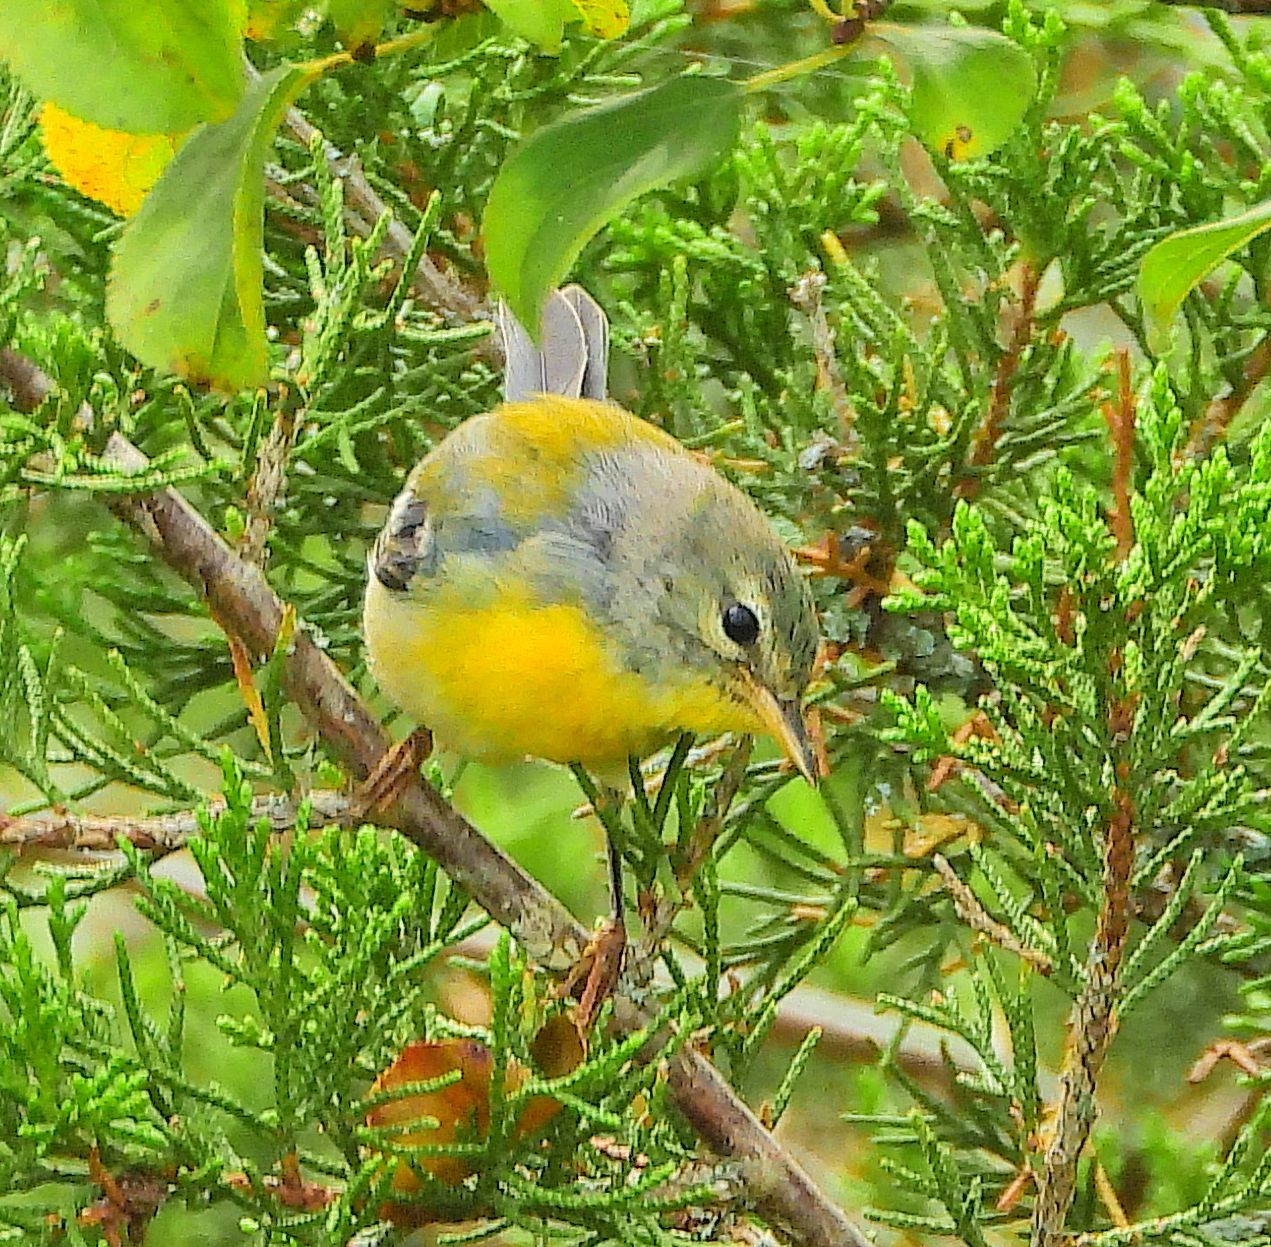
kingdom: Animalia
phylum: Chordata
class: Aves
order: Passeriformes
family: Parulidae
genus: Setophaga
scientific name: Setophaga americana
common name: Northern parula
